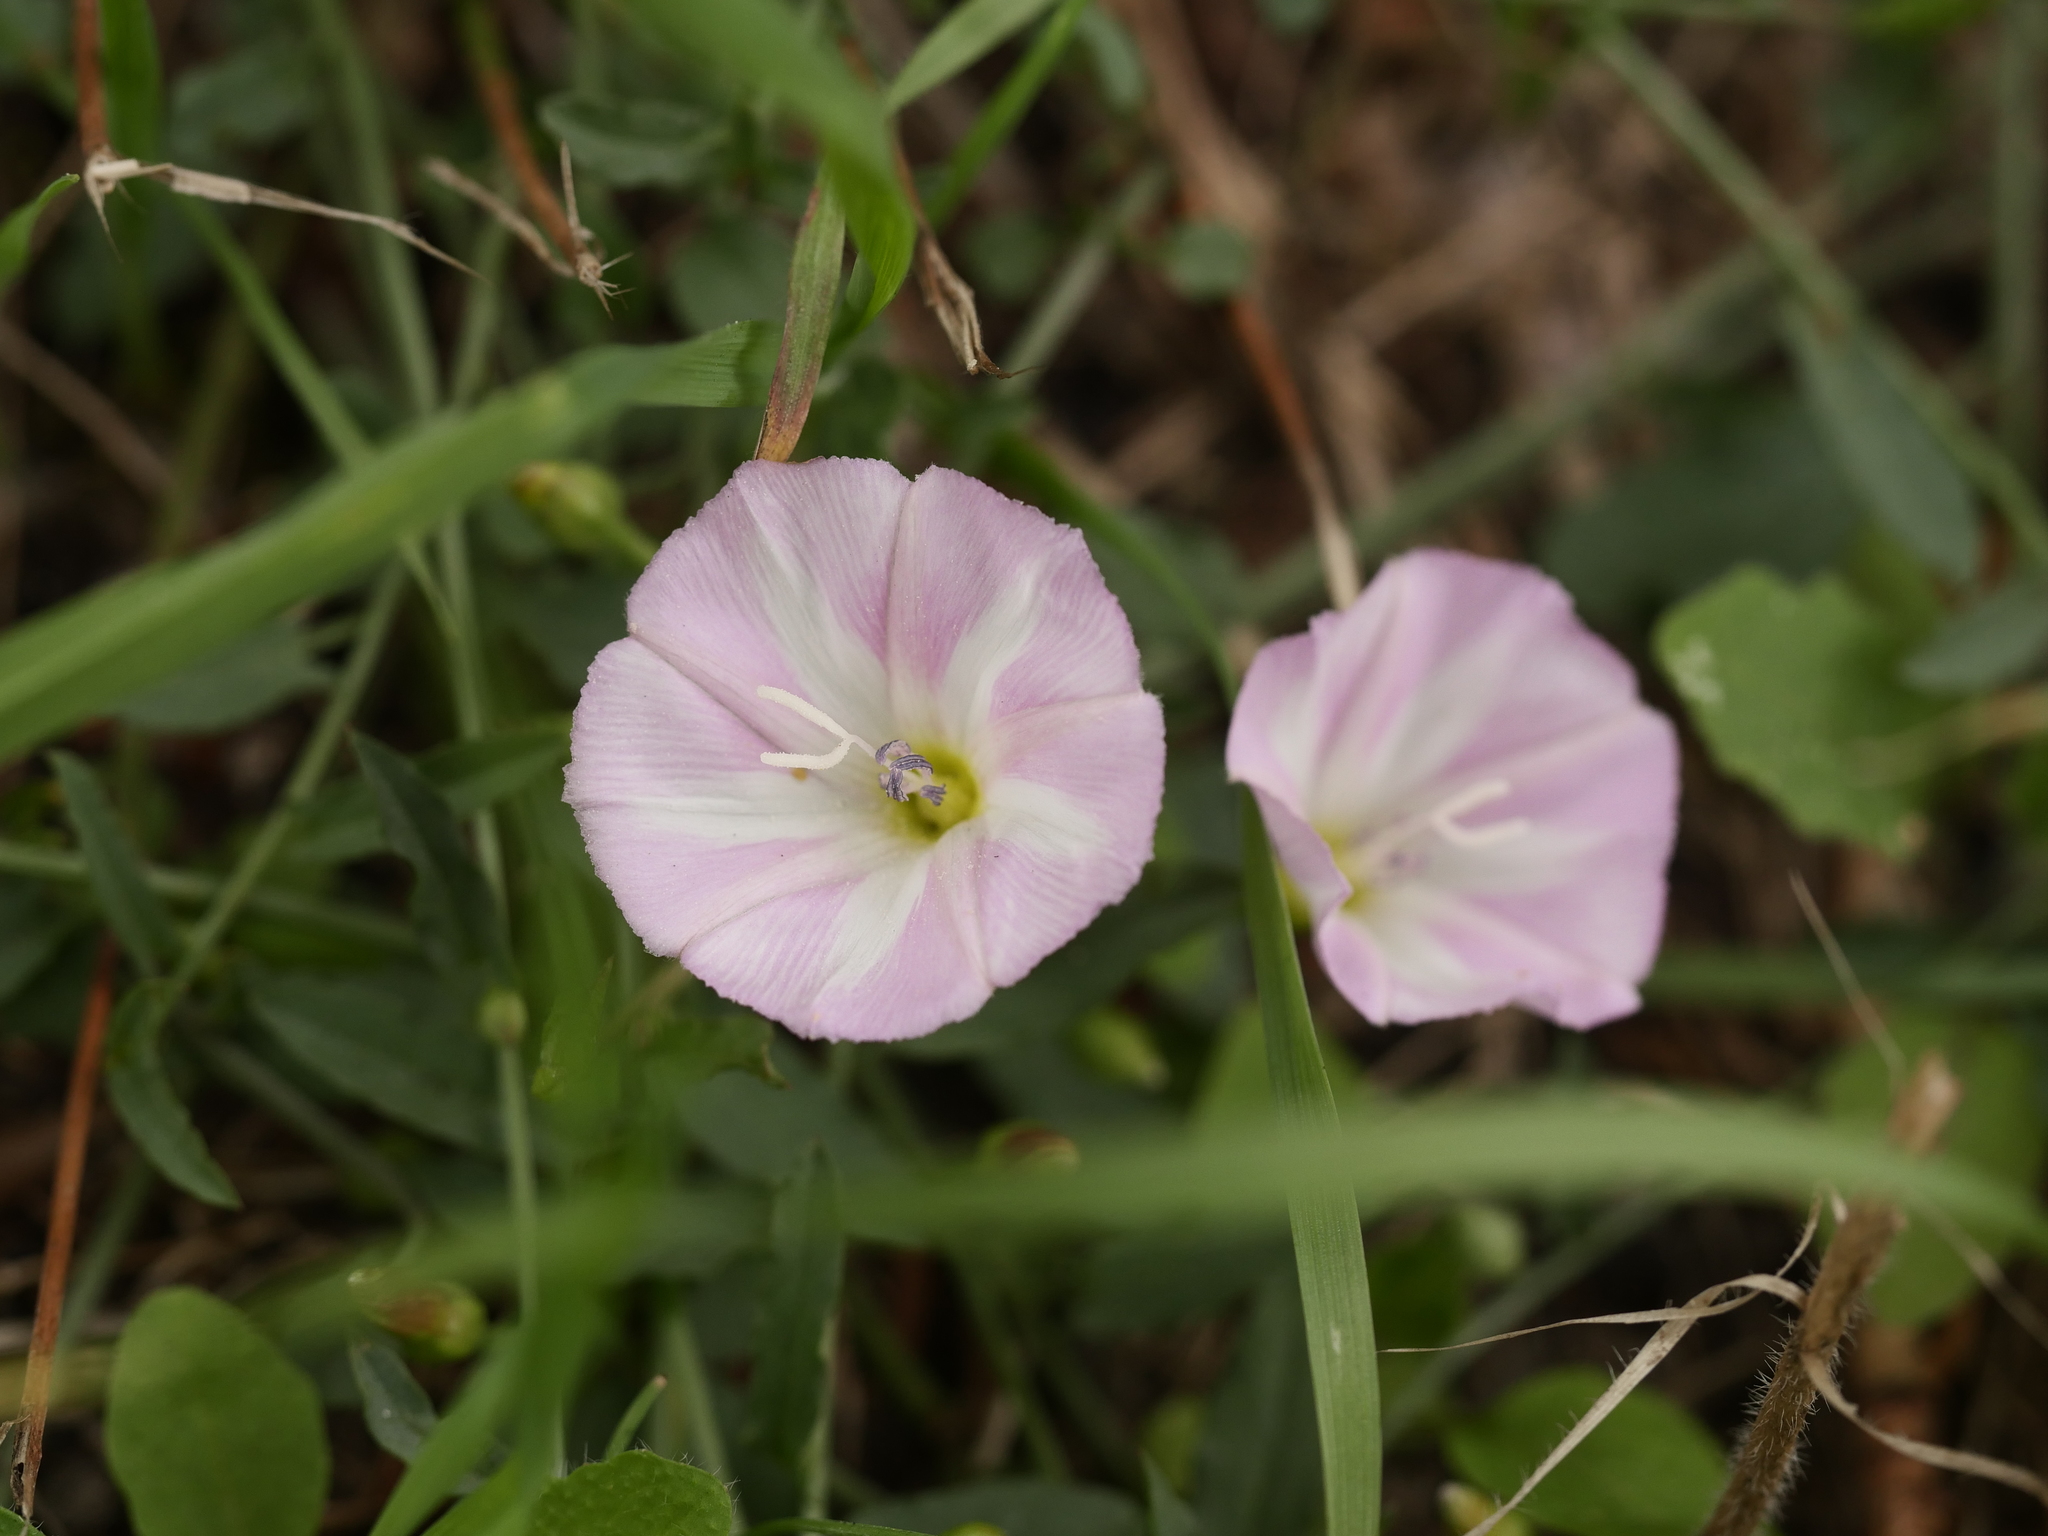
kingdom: Plantae
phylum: Tracheophyta
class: Magnoliopsida
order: Solanales
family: Convolvulaceae
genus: Convolvulus
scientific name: Convolvulus arvensis
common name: Field bindweed
